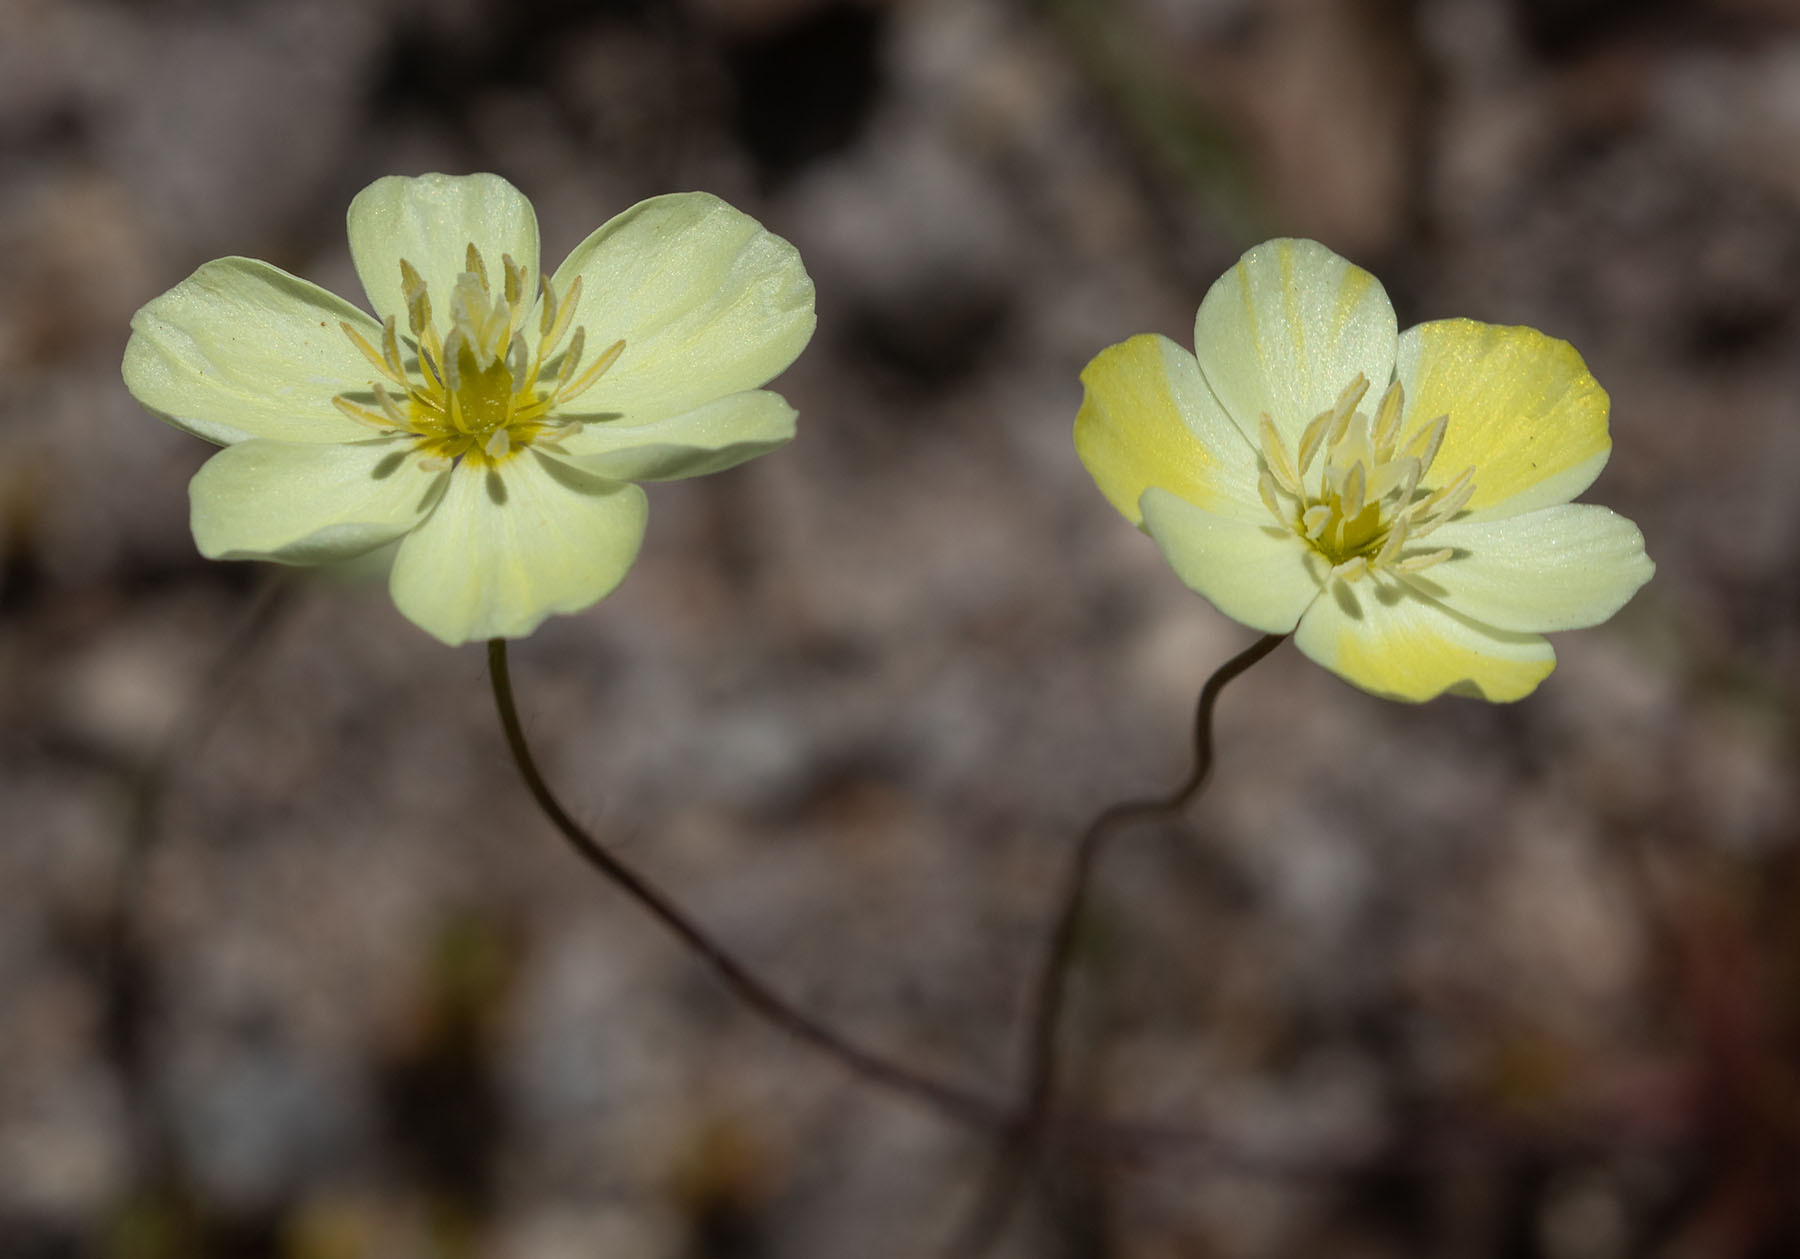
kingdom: Plantae
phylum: Tracheophyta
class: Magnoliopsida
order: Ranunculales
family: Papaveraceae
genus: Platystigma
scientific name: Platystigma lineare
